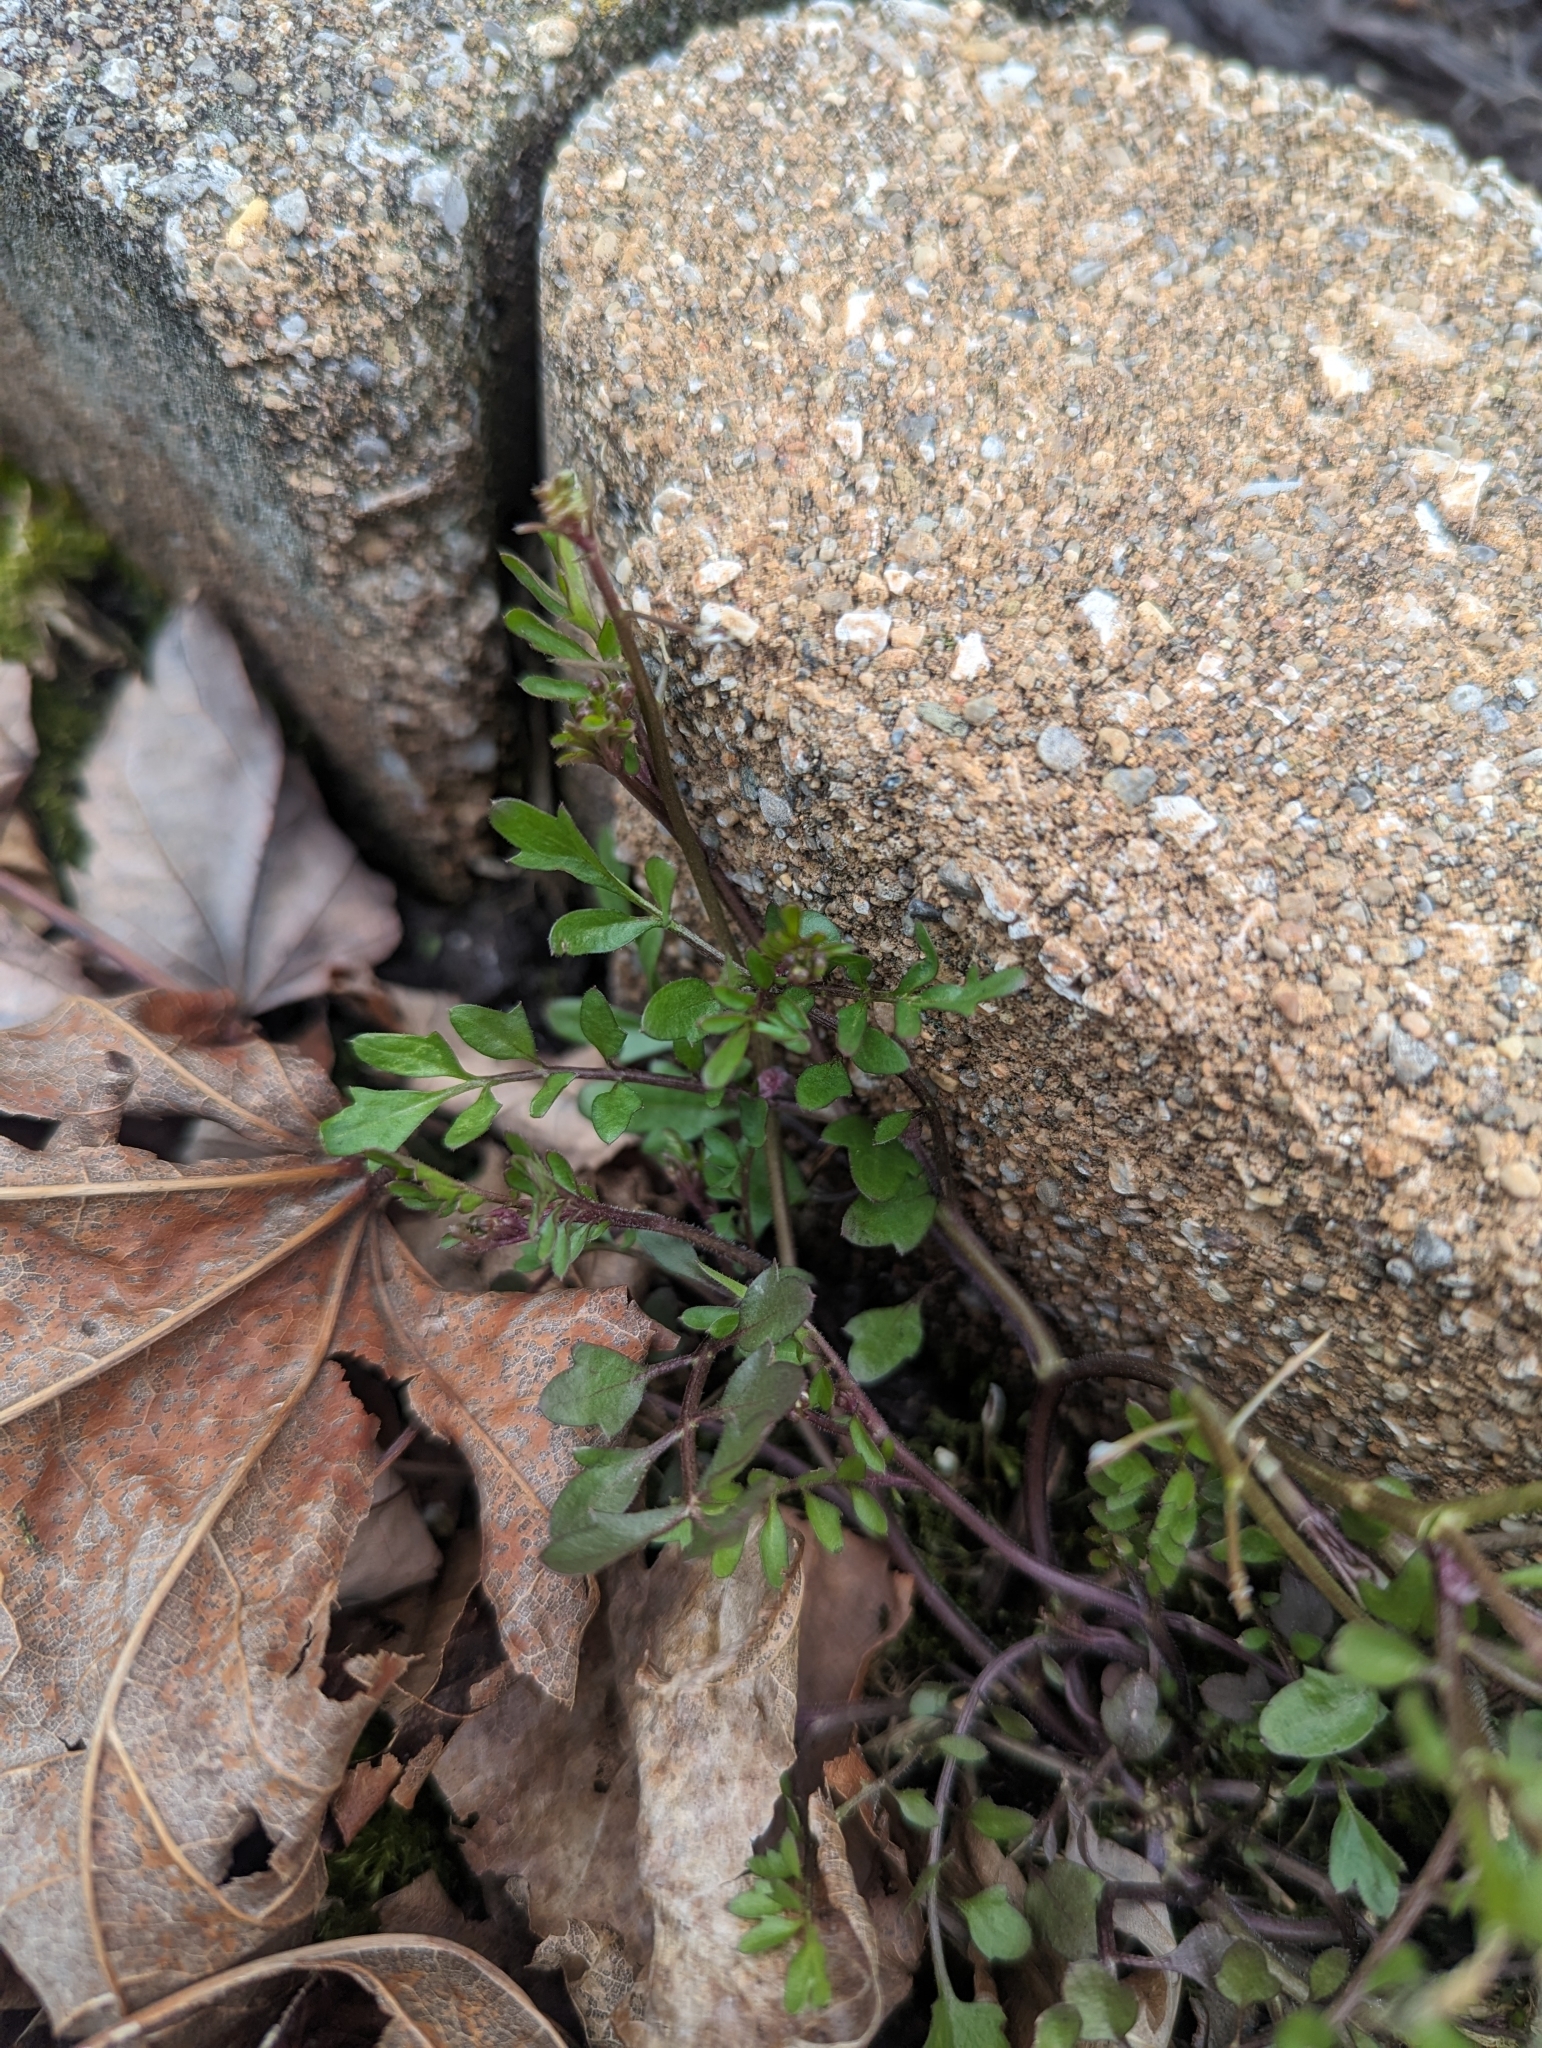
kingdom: Plantae
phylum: Tracheophyta
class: Magnoliopsida
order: Brassicales
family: Brassicaceae
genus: Cardamine
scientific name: Cardamine hirsuta
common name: Hairy bittercress
